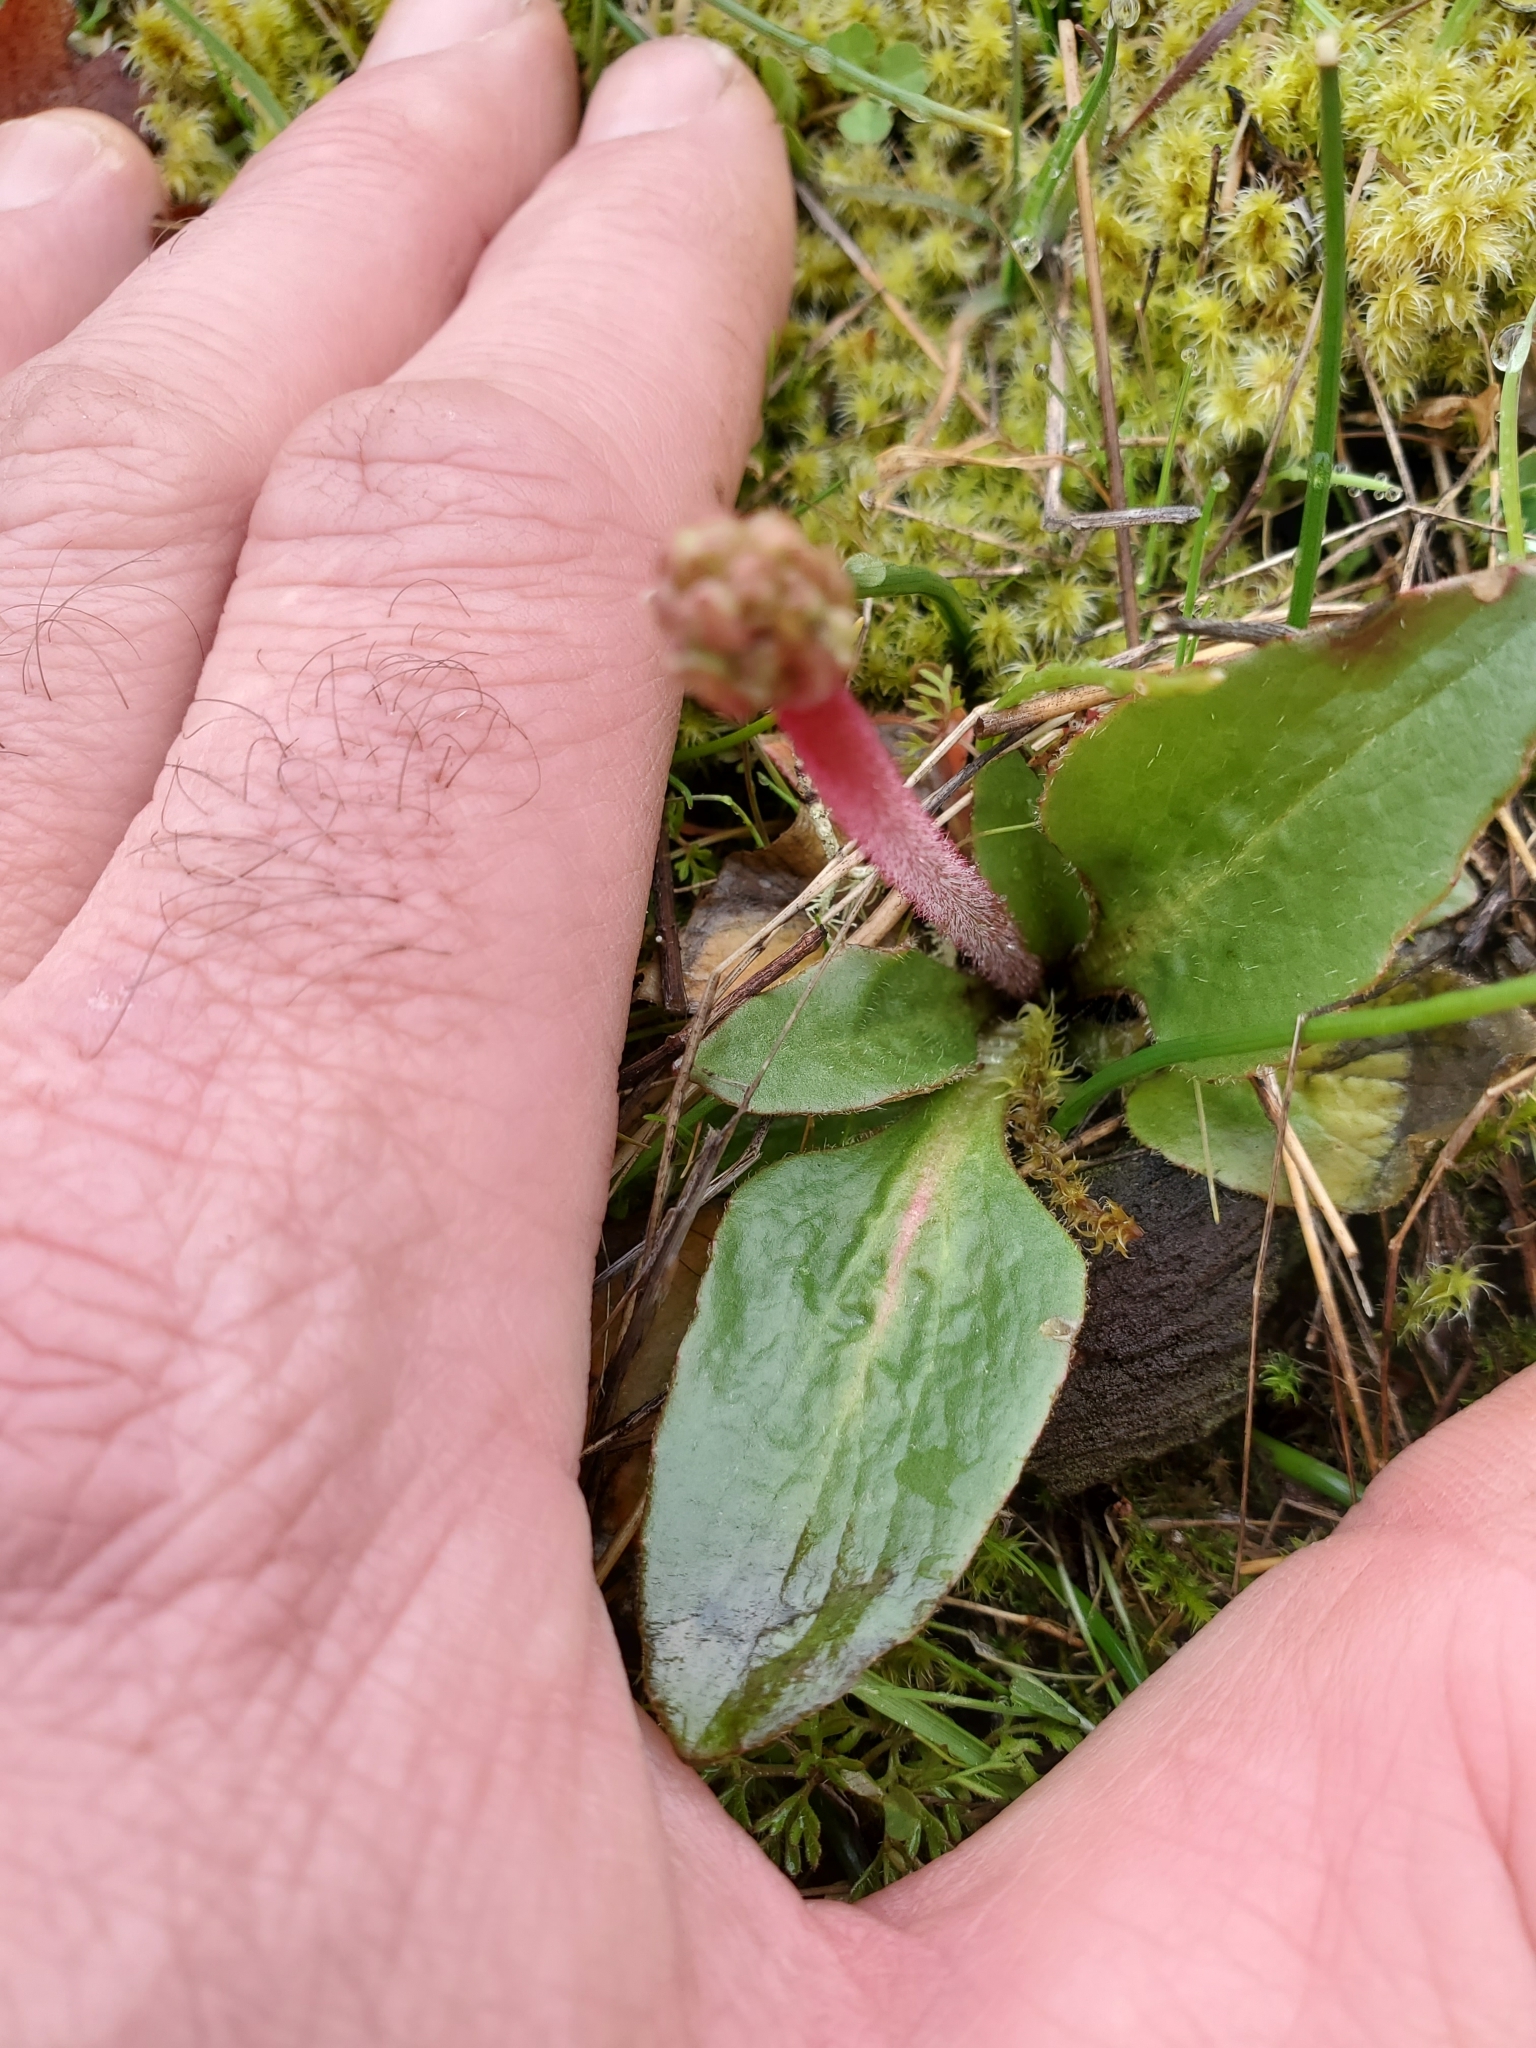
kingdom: Plantae
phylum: Tracheophyta
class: Magnoliopsida
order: Saxifragales
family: Saxifragaceae
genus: Micranthes
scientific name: Micranthes integrifolia
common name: Wholeleaf saxifrage
